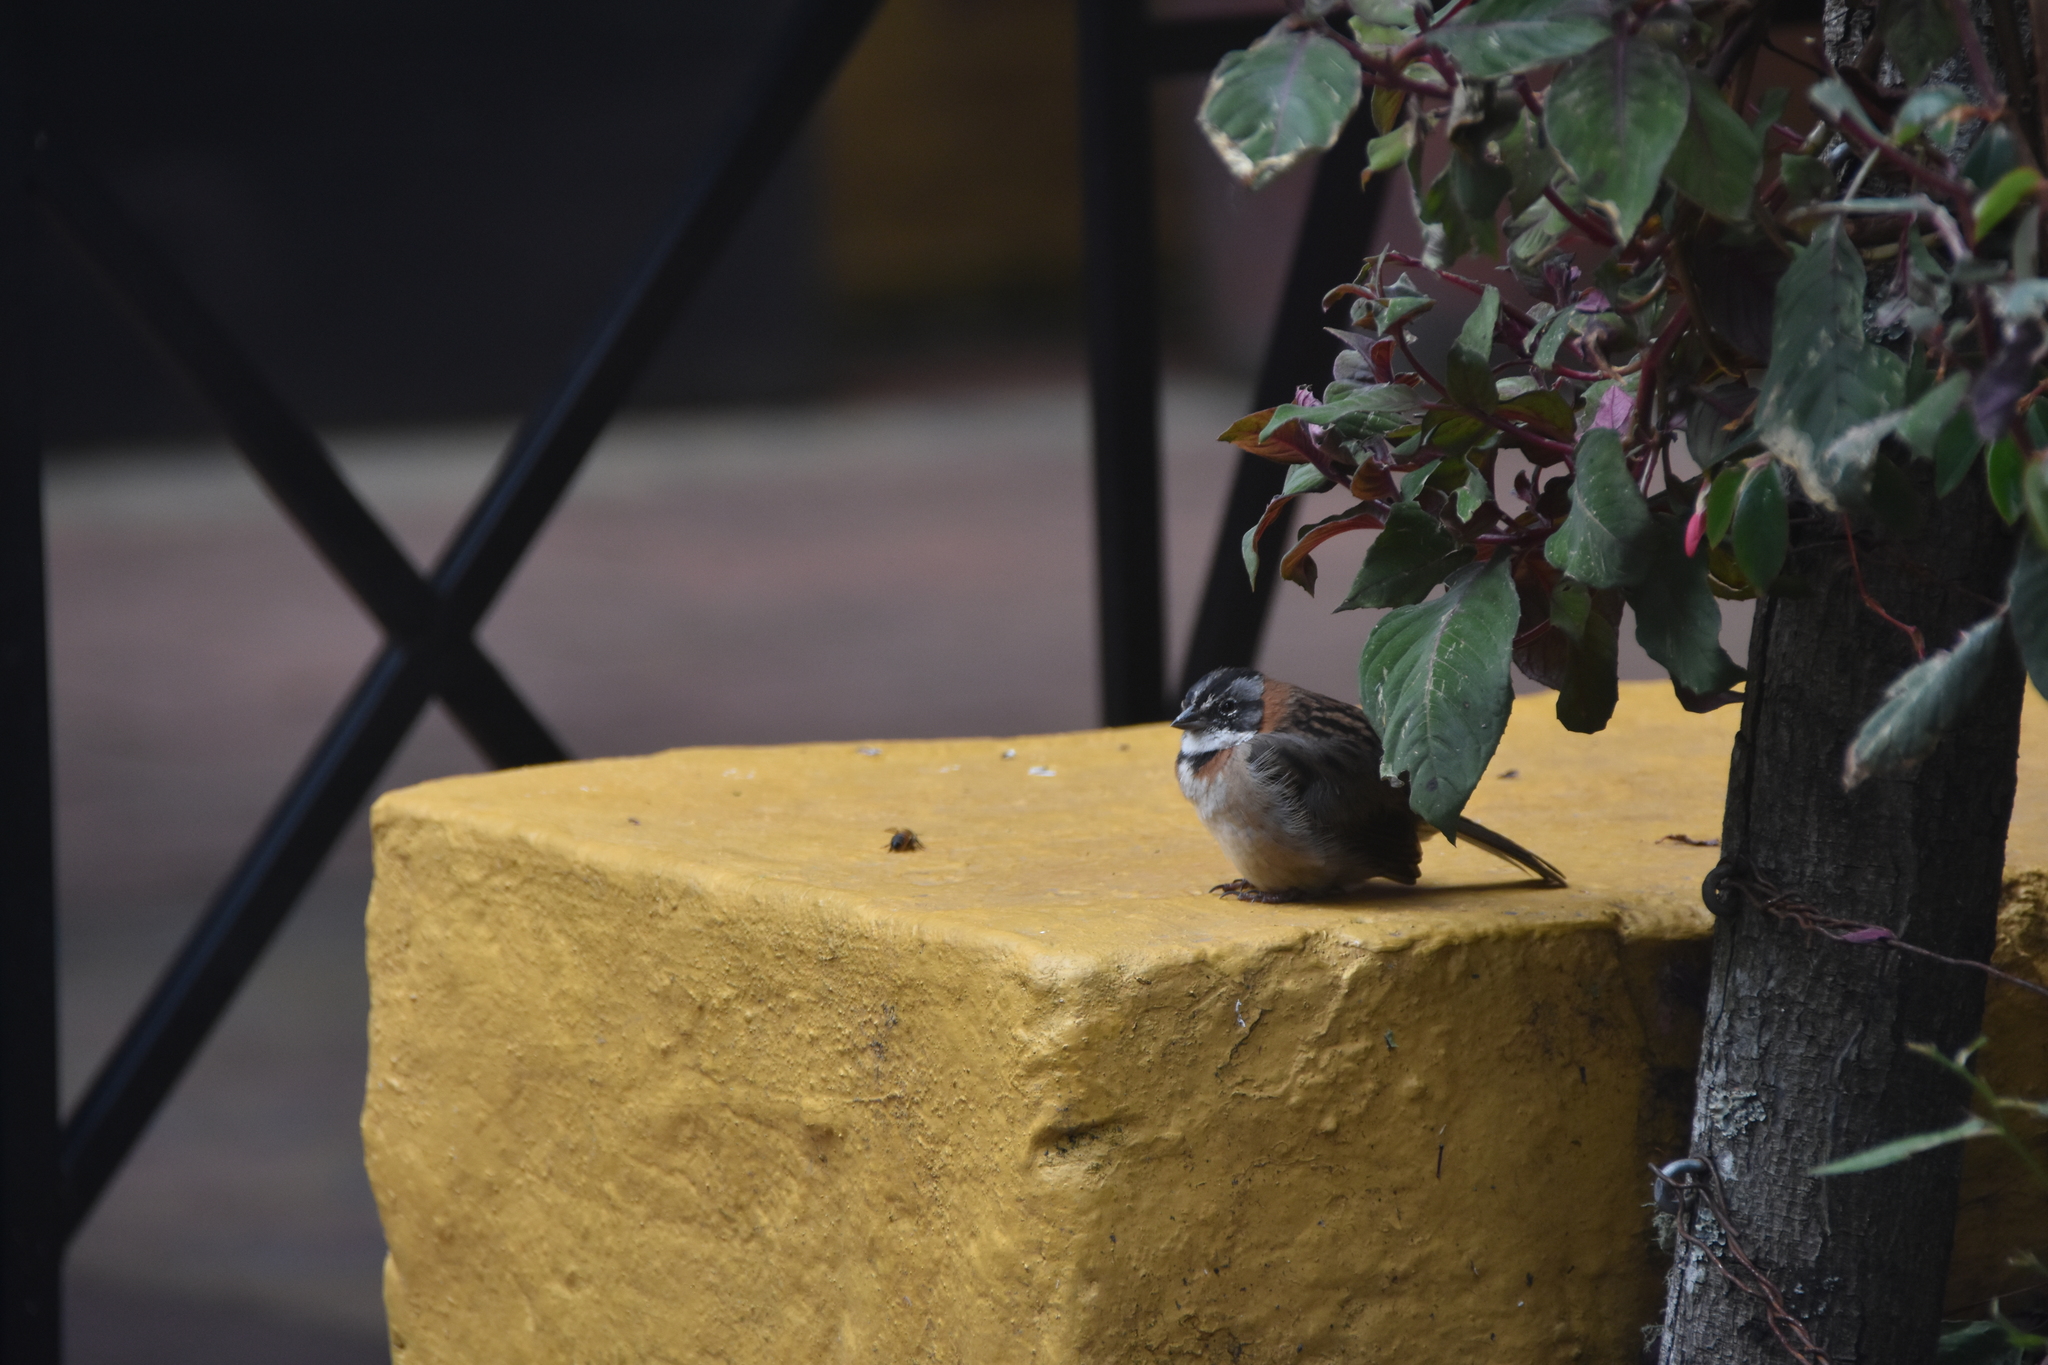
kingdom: Animalia
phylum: Chordata
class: Aves
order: Passeriformes
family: Passerellidae
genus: Zonotrichia
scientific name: Zonotrichia capensis
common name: Rufous-collared sparrow
